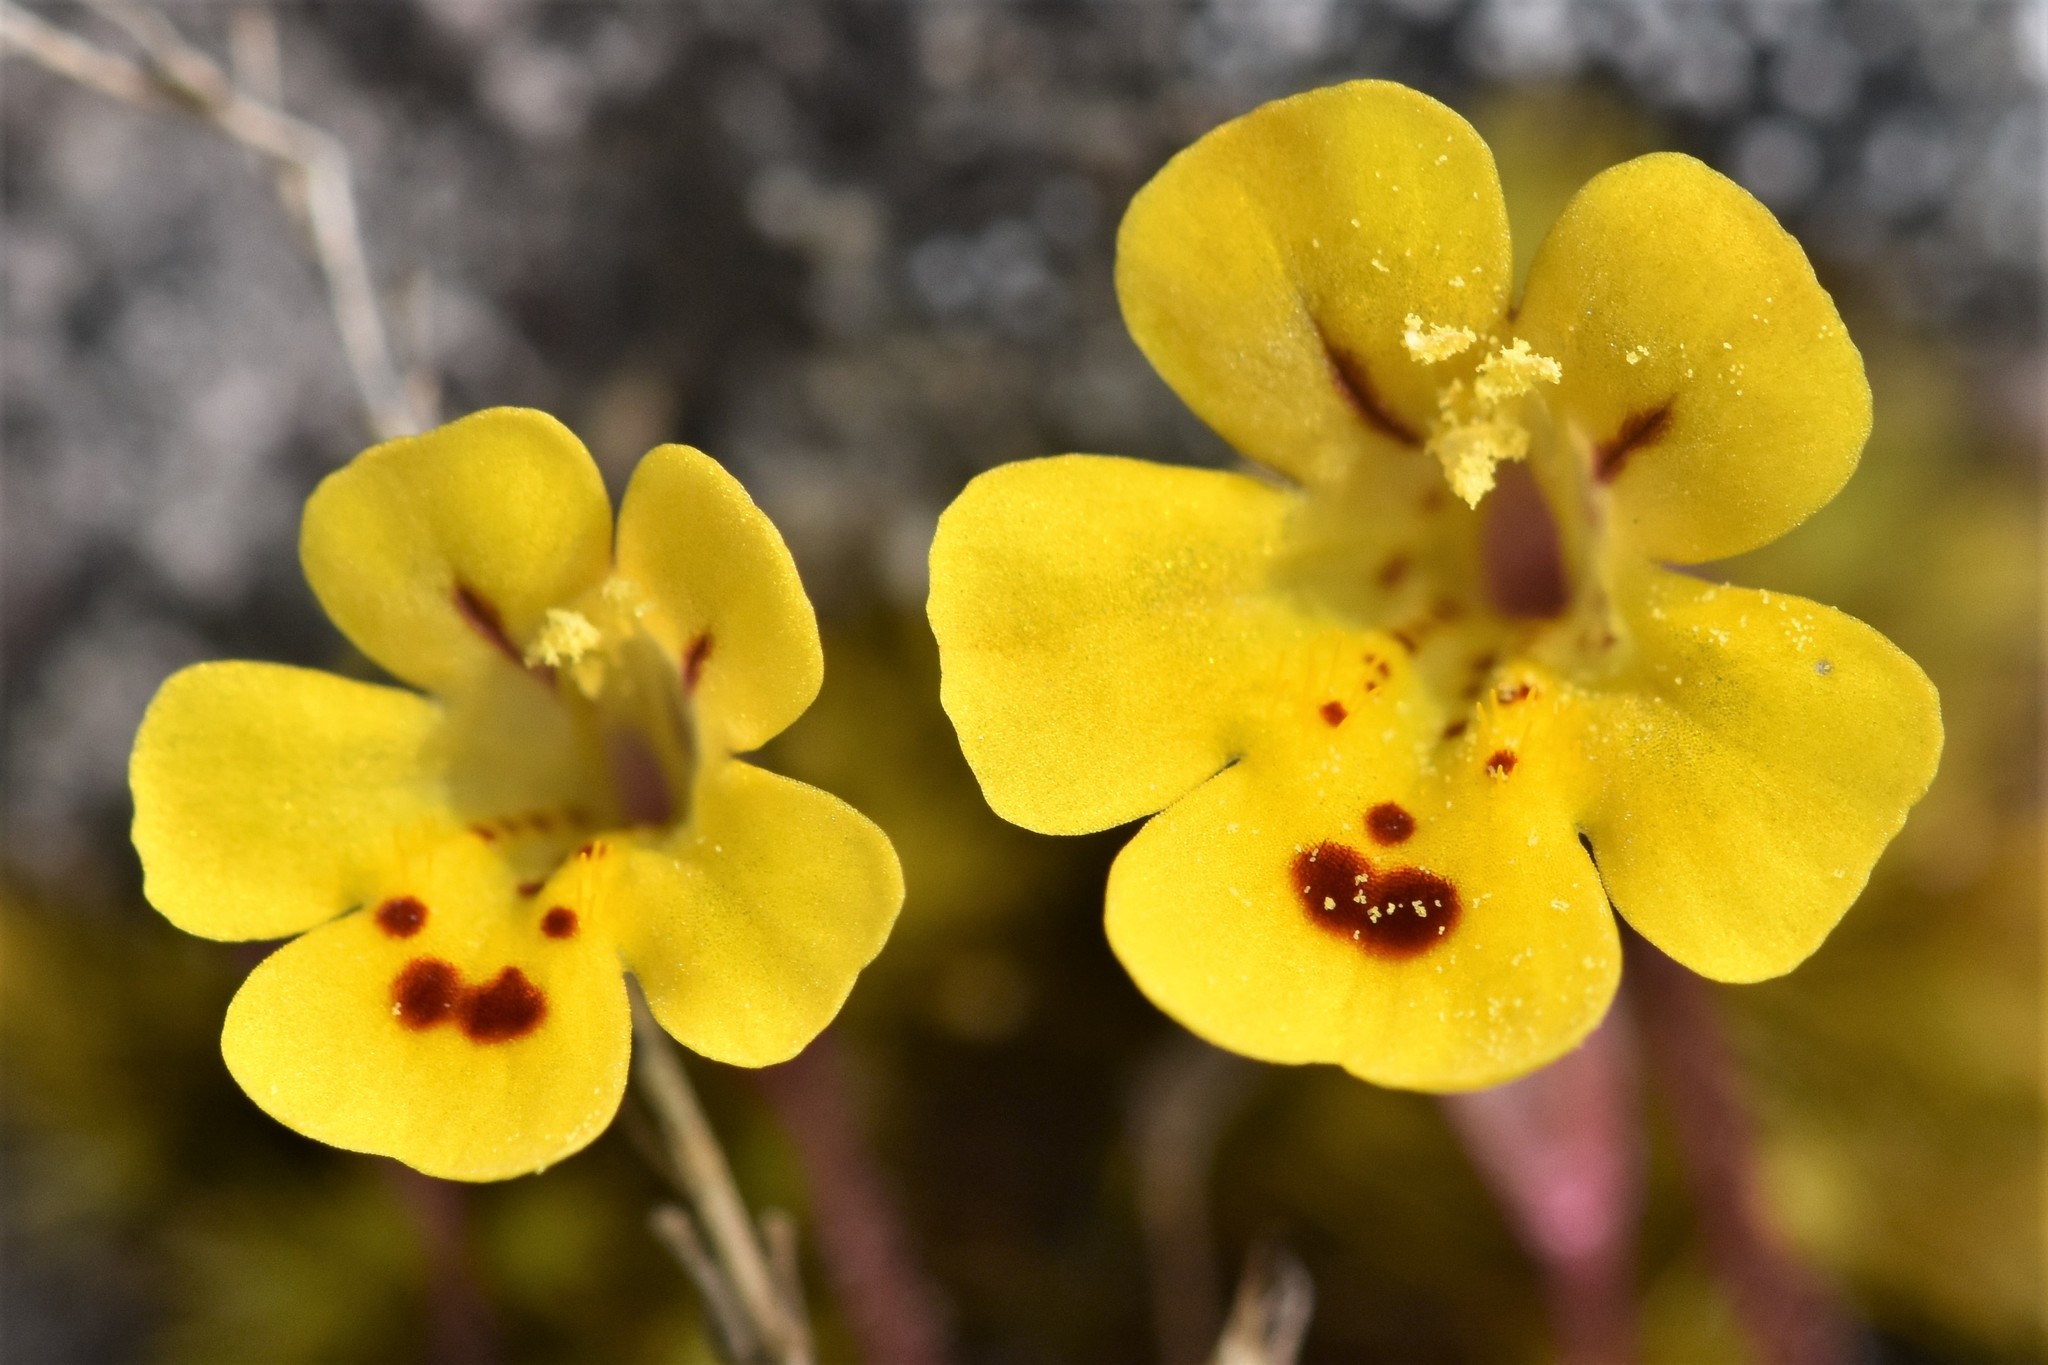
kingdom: Plantae
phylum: Tracheophyta
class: Magnoliopsida
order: Lamiales
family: Phrymaceae
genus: Erythranthe
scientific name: Erythranthe alsinoides
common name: Chickweed monkeyflower
